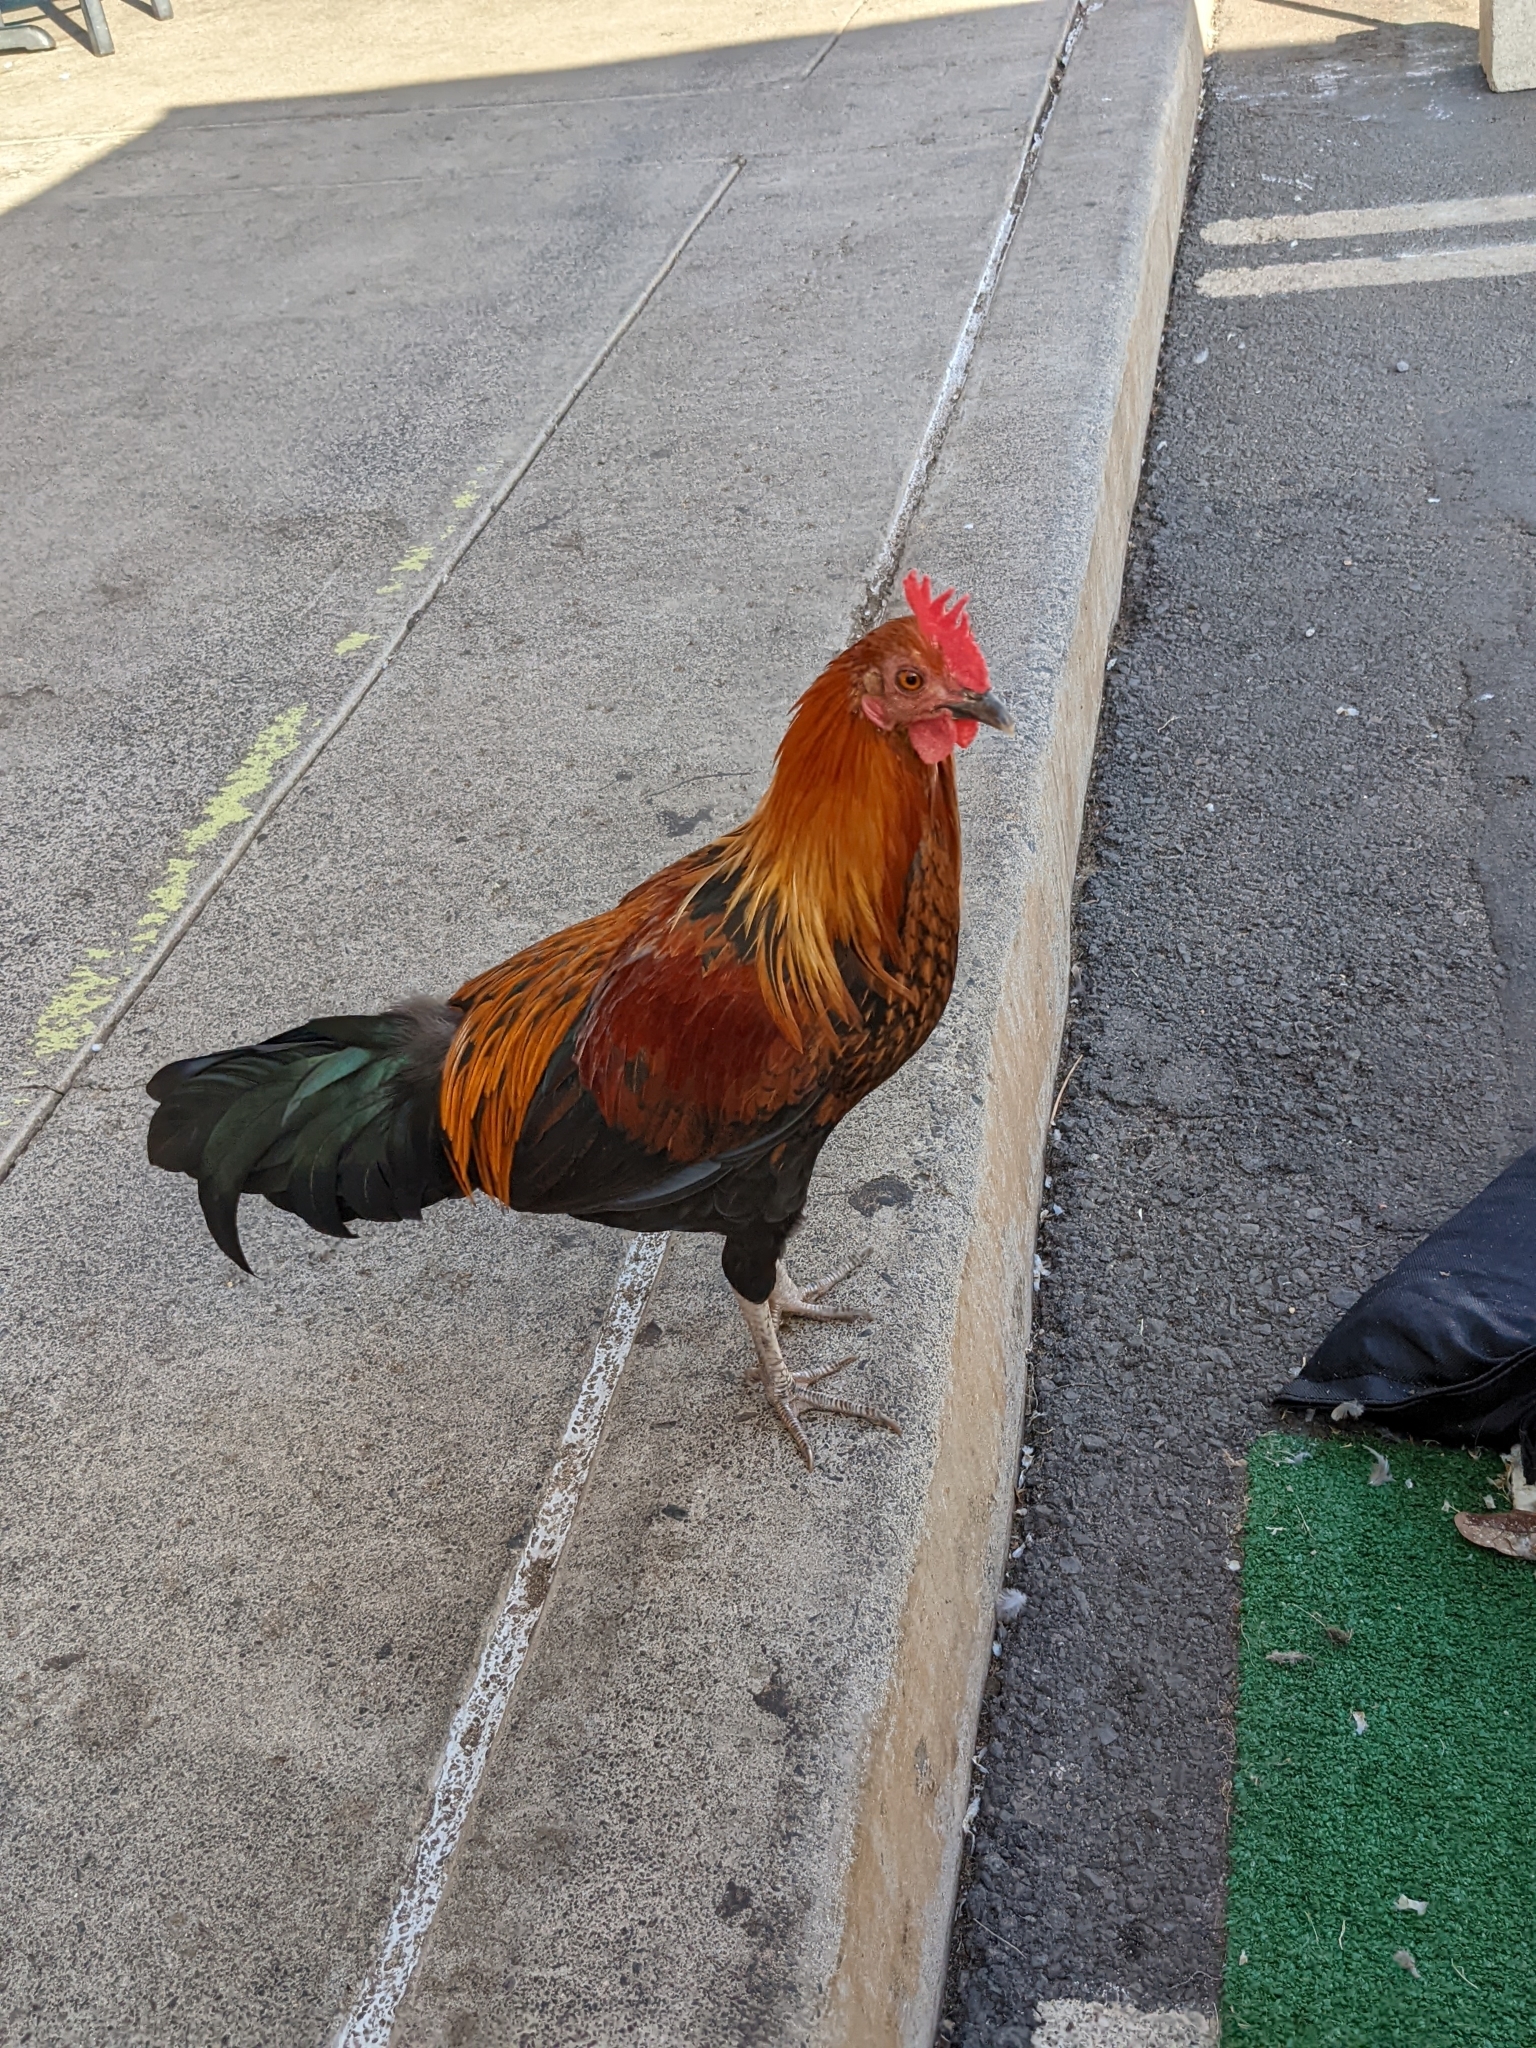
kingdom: Animalia
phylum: Chordata
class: Aves
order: Galliformes
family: Phasianidae
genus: Gallus
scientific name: Gallus gallus
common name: Red junglefowl
